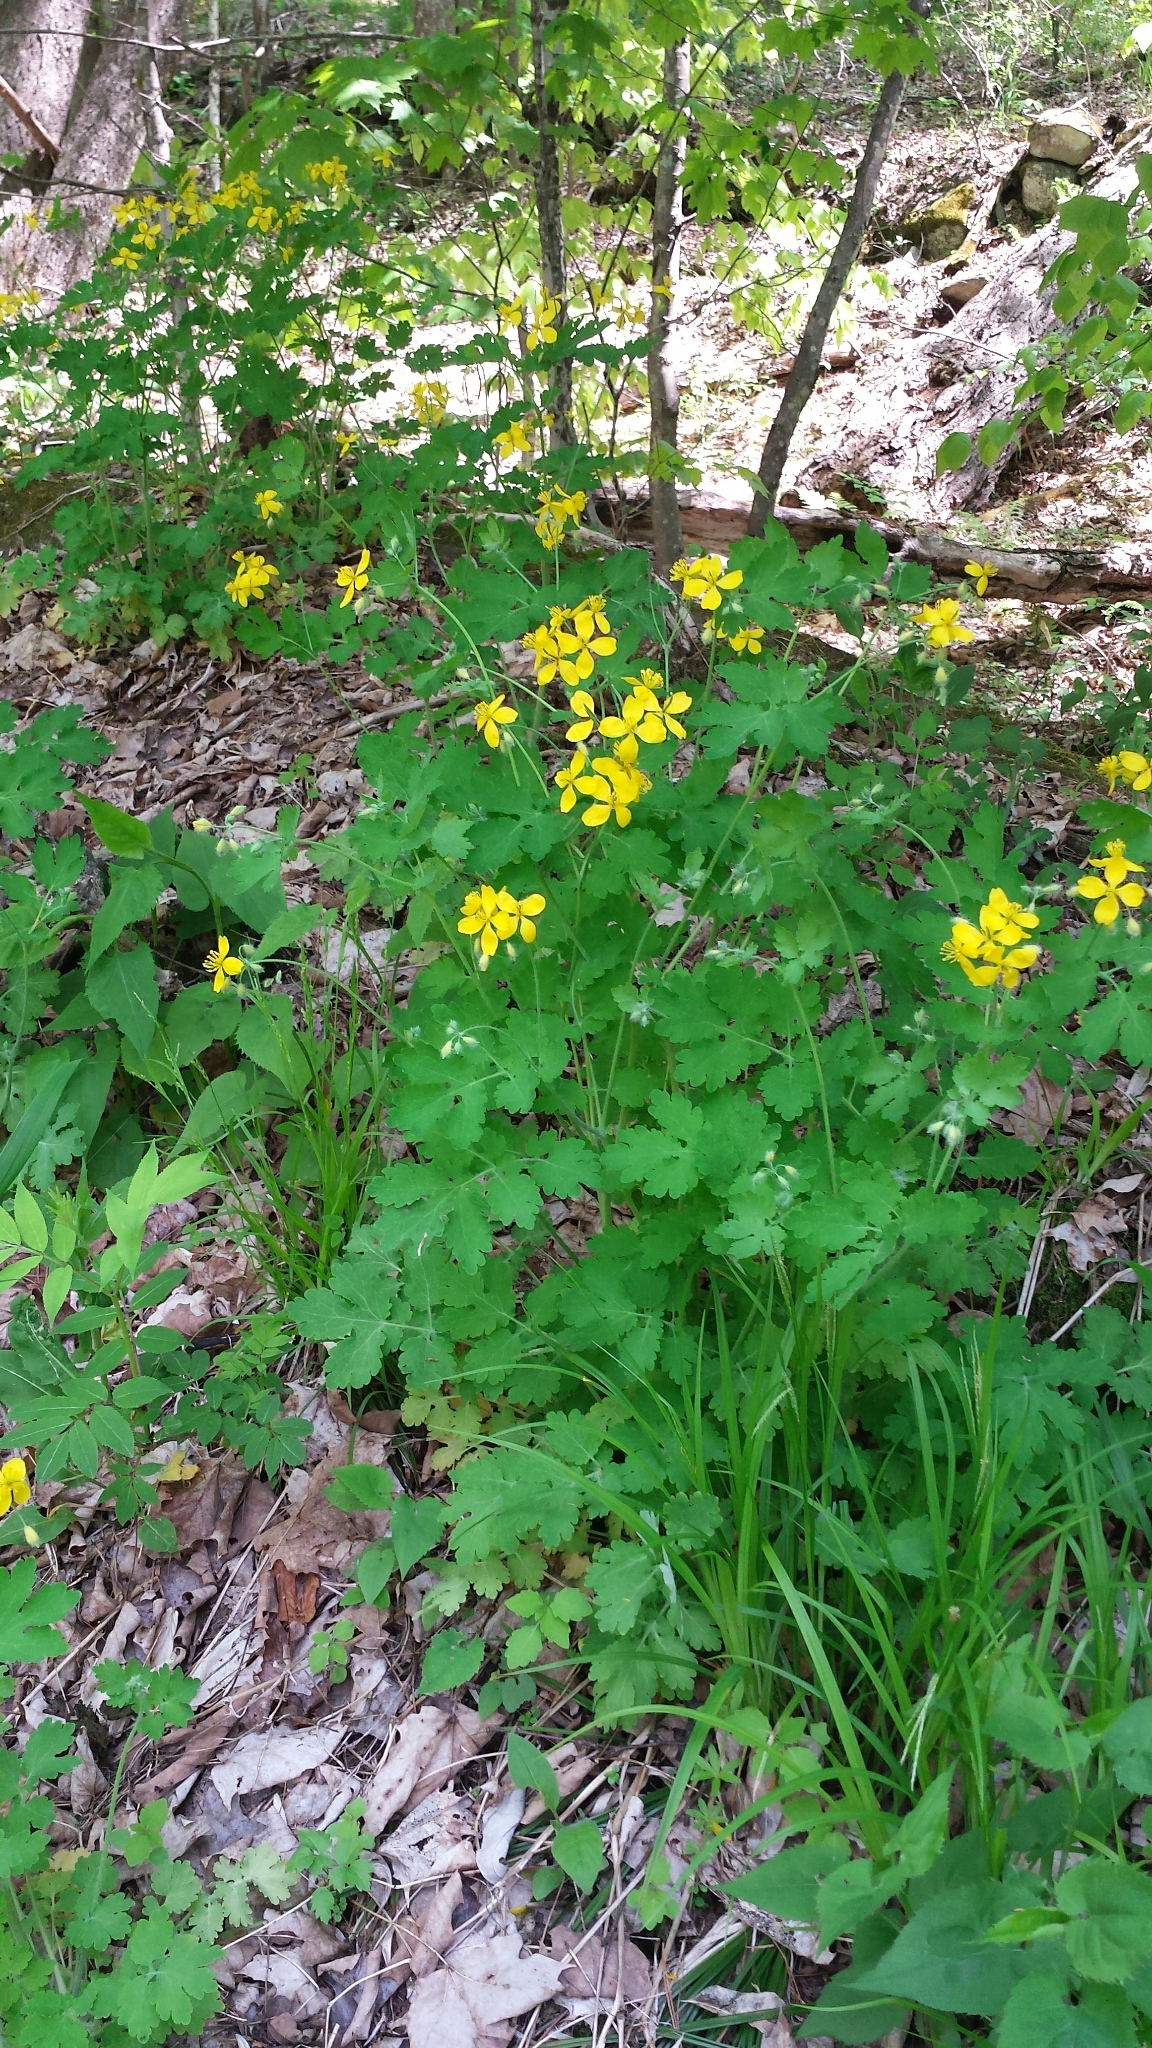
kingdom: Plantae
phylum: Tracheophyta
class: Magnoliopsida
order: Ranunculales
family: Papaveraceae
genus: Chelidonium
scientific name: Chelidonium majus
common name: Greater celandine
